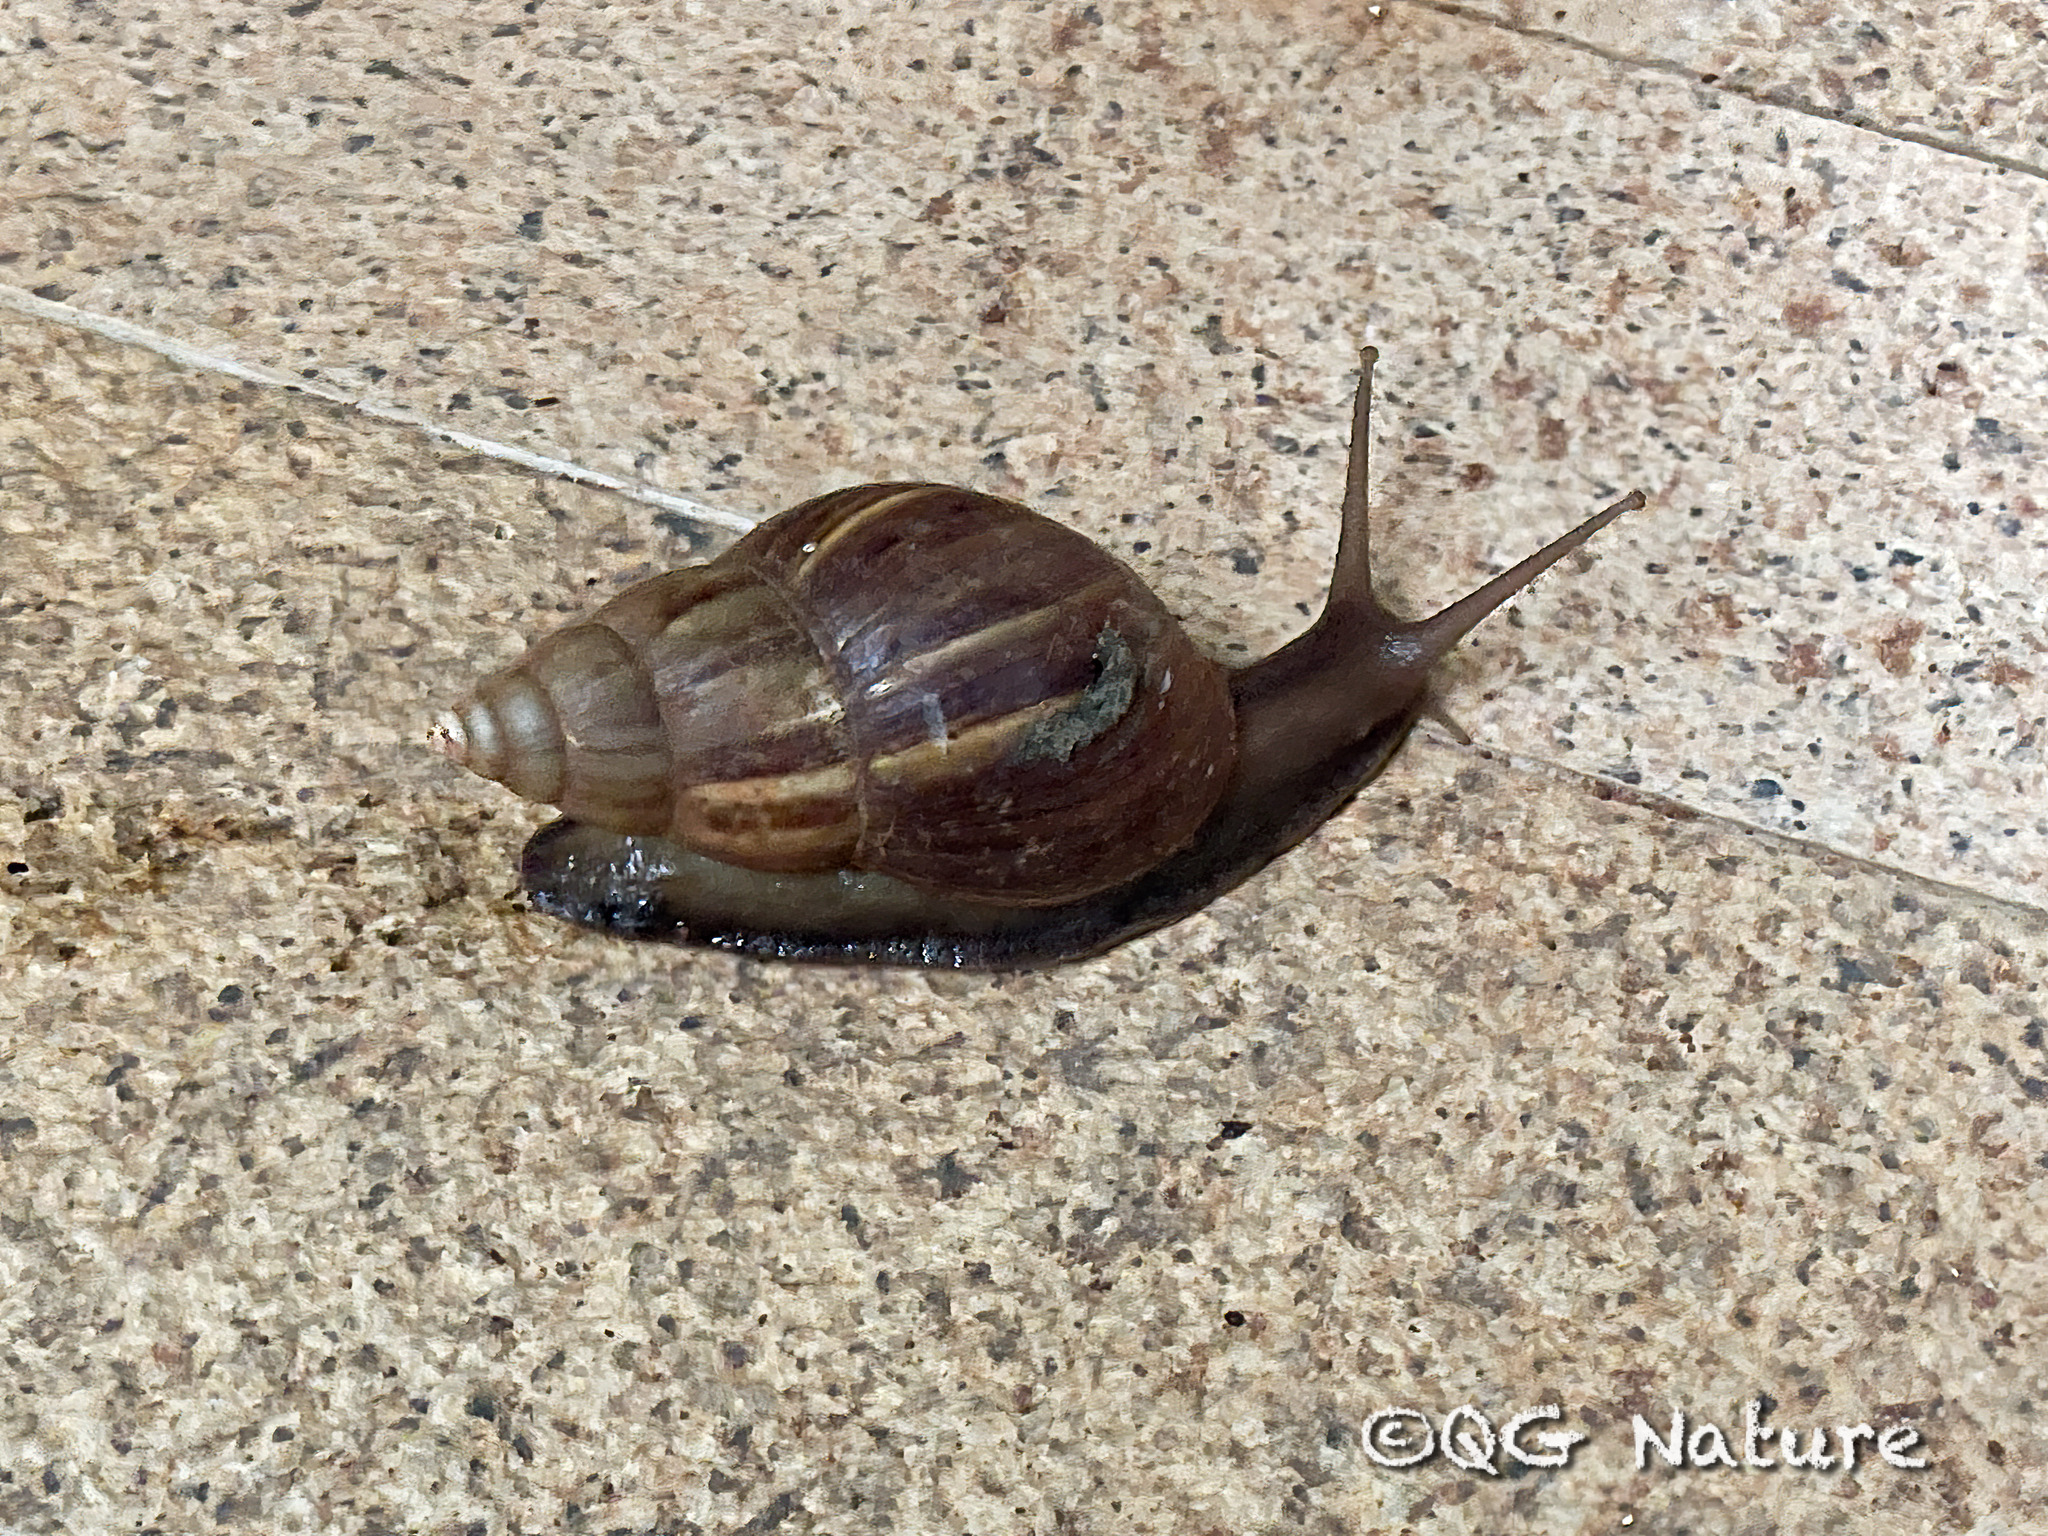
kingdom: Animalia
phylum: Mollusca
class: Gastropoda
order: Stylommatophora
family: Achatinidae
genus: Lissachatina
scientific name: Lissachatina fulica
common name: Giant african snail
